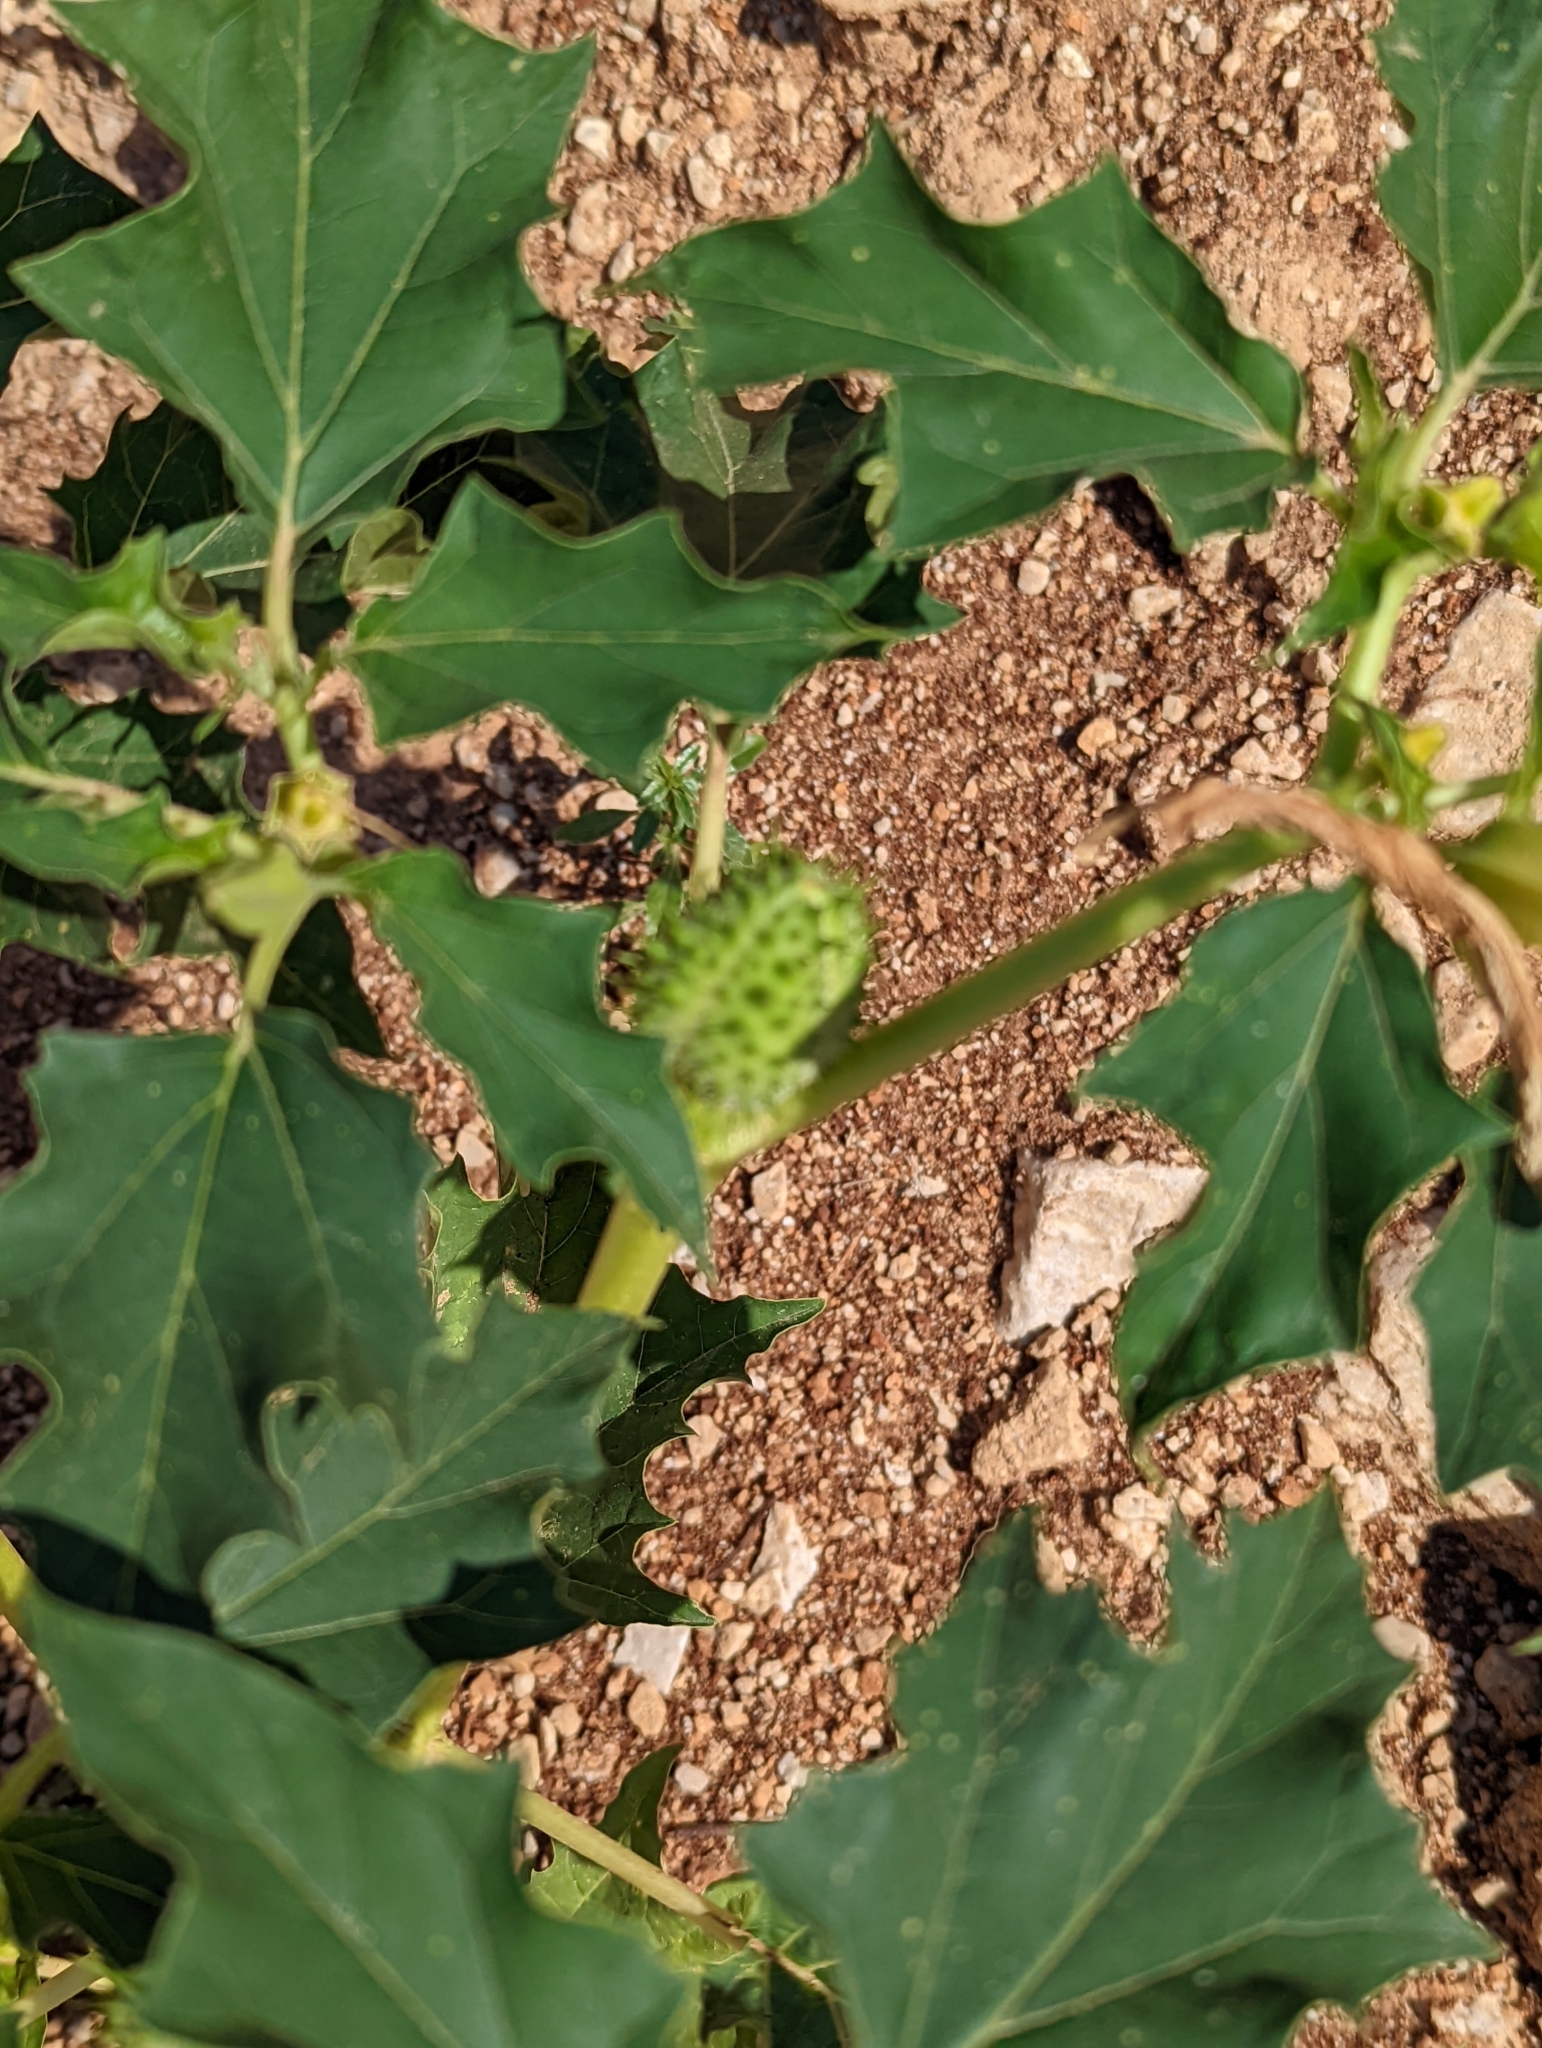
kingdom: Plantae
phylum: Tracheophyta
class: Magnoliopsida
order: Solanales
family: Solanaceae
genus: Datura
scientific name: Datura stramonium
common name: Thorn-apple
